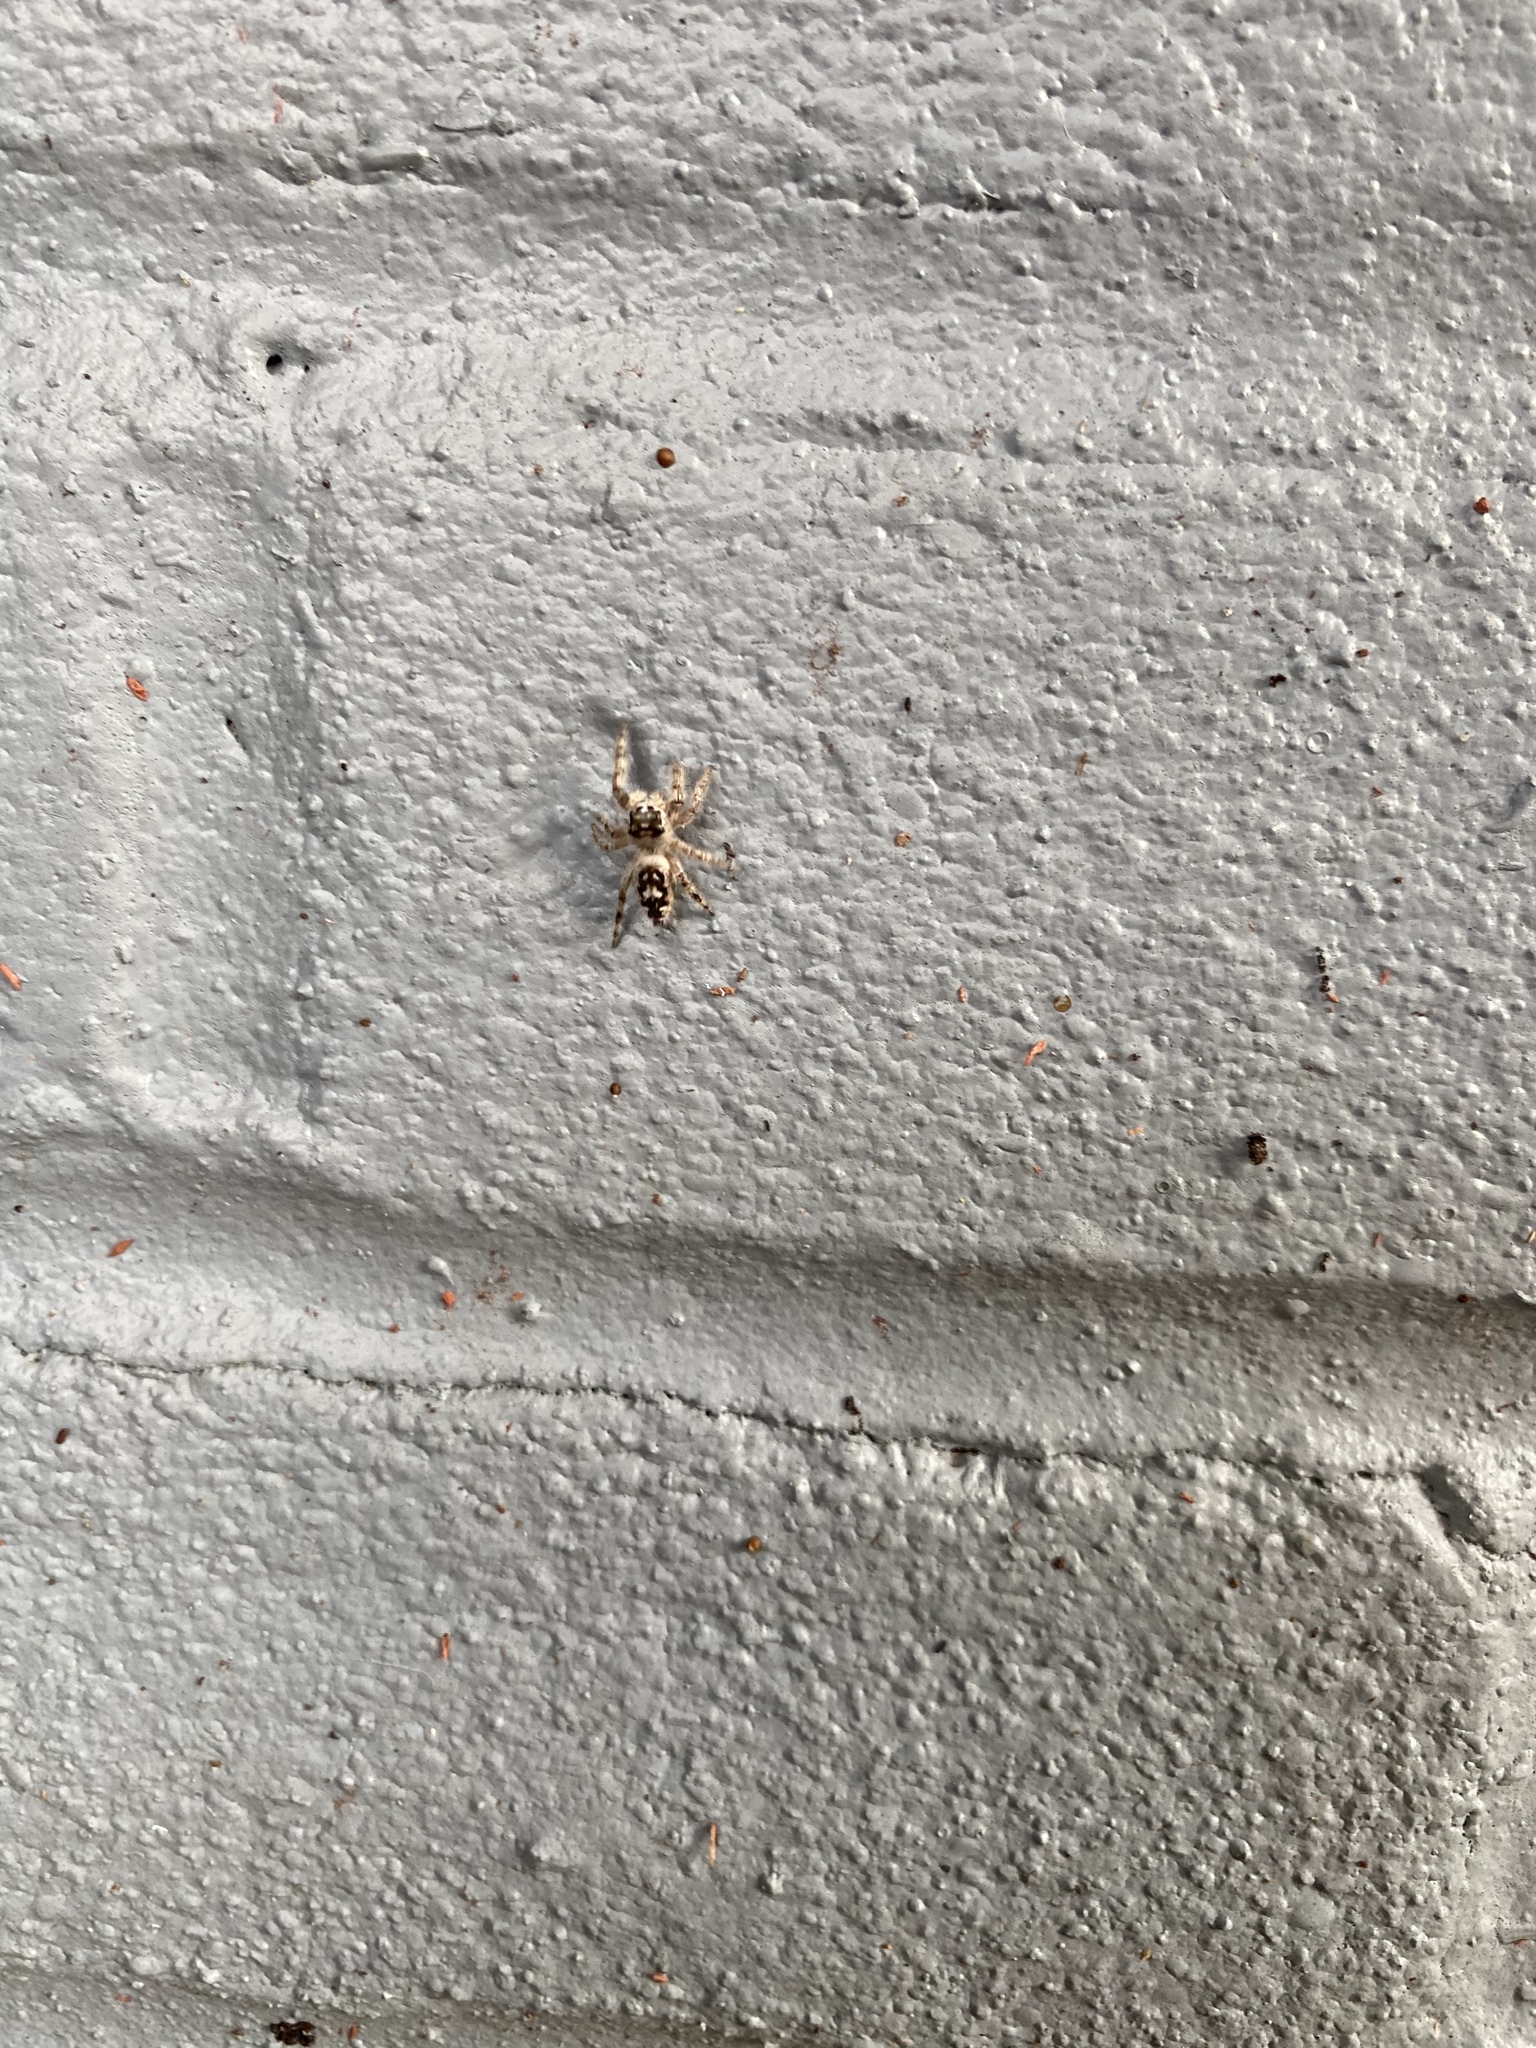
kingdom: Animalia
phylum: Arthropoda
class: Arachnida
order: Araneae
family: Salticidae
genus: Phidippus
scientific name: Phidippus otiosus
